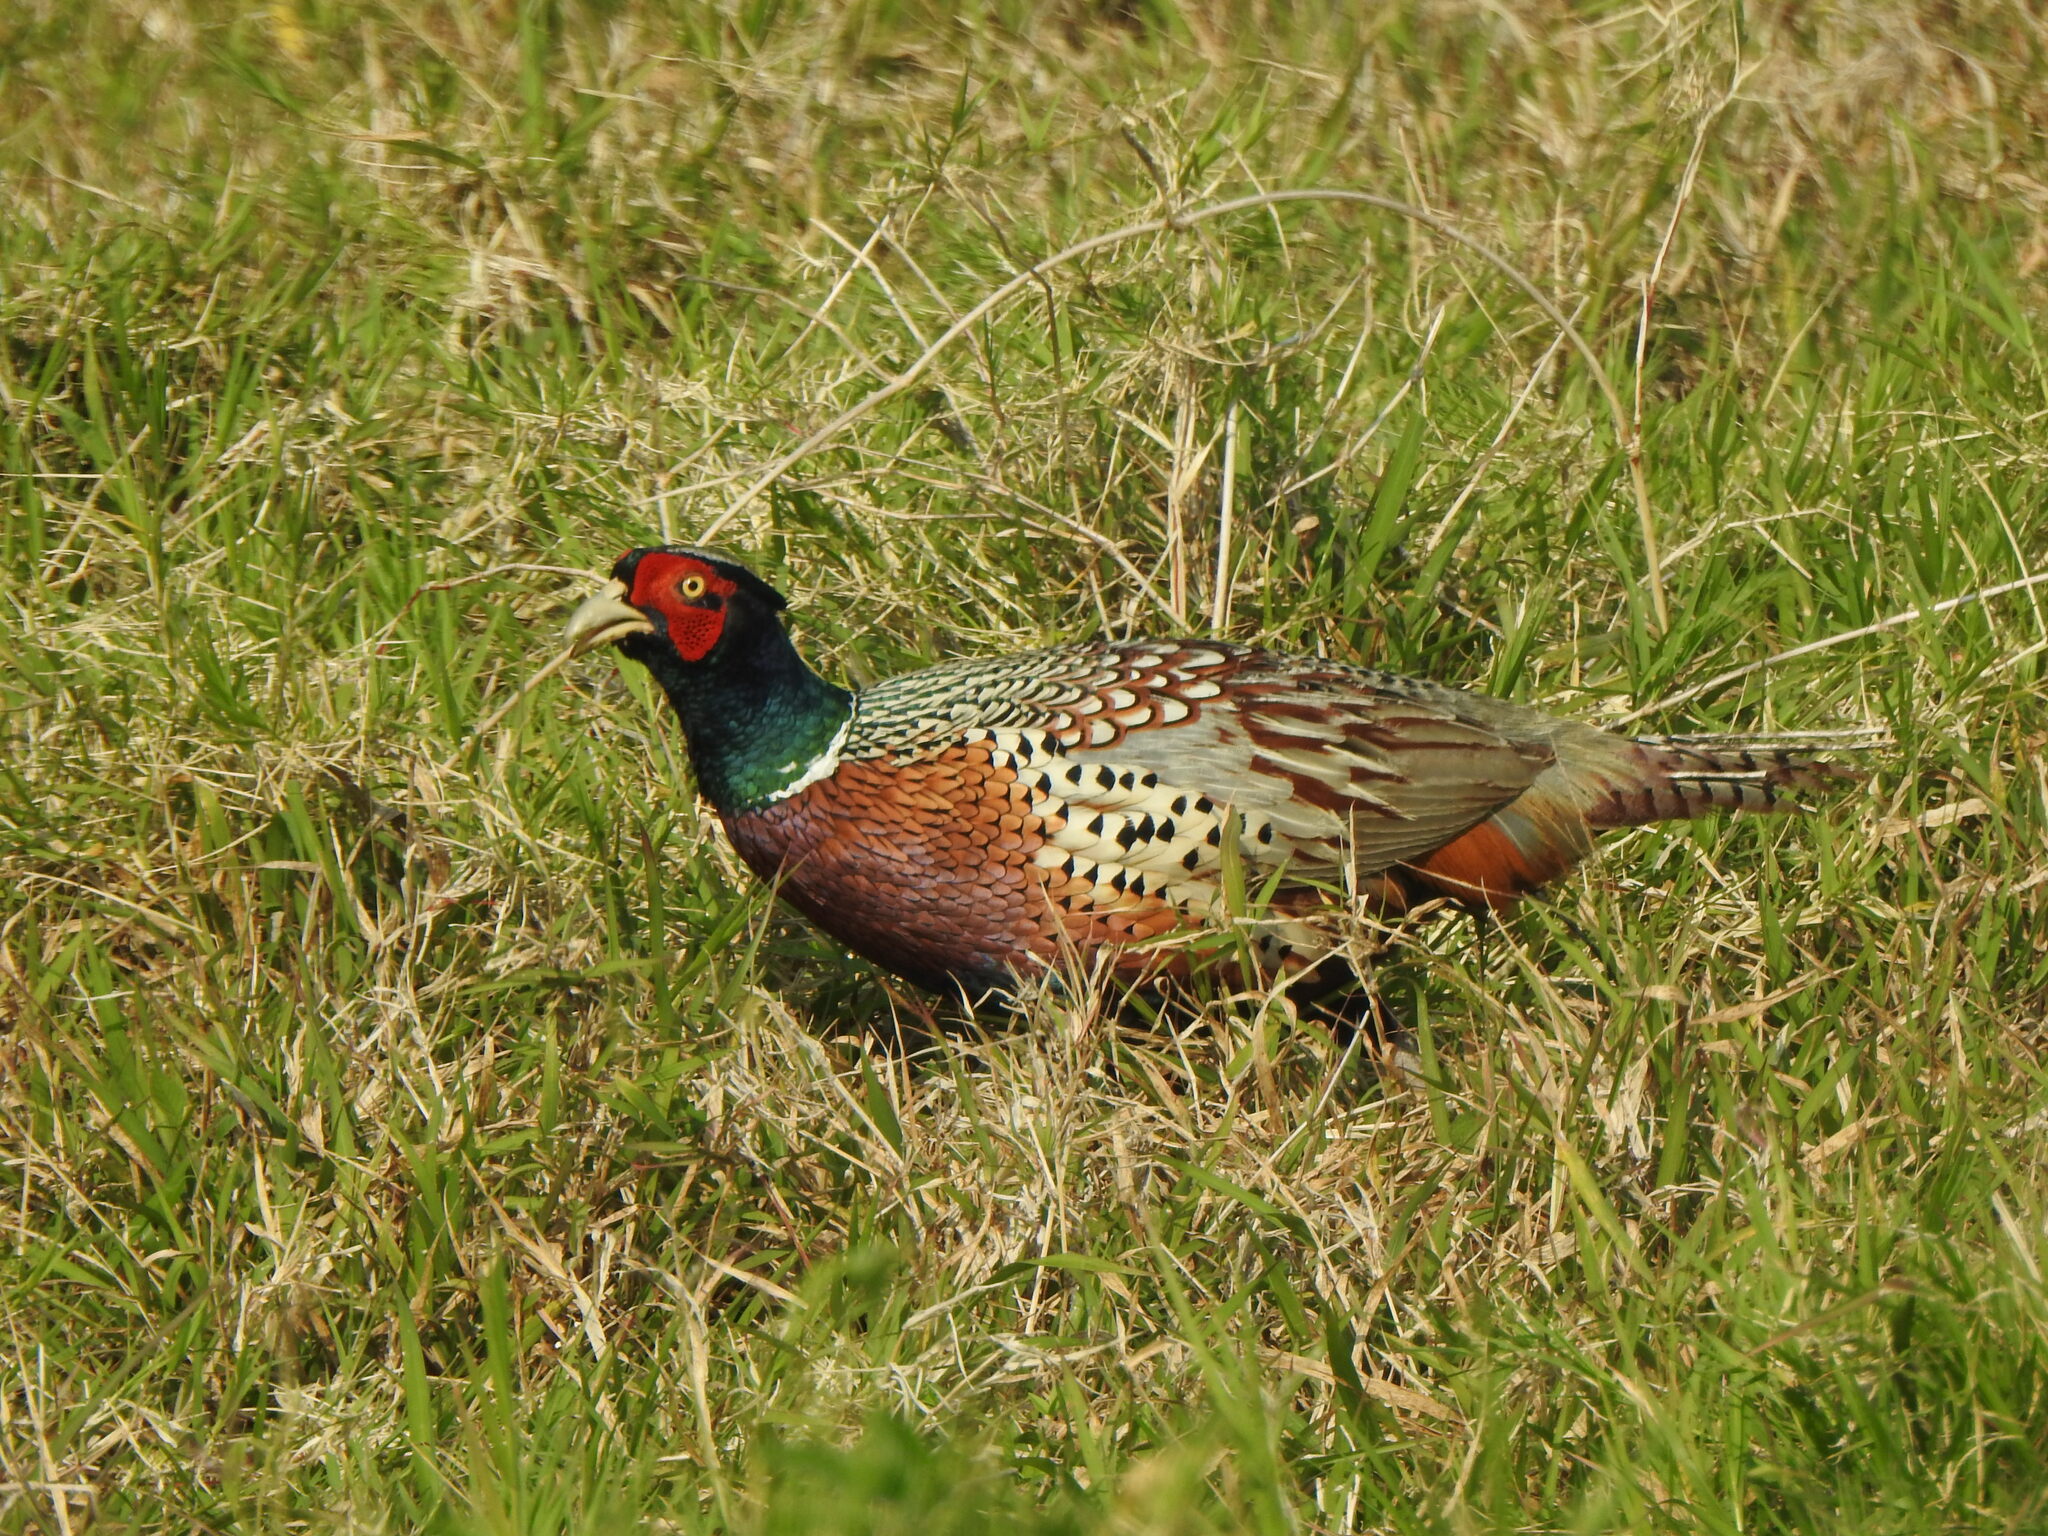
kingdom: Animalia
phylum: Chordata
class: Aves
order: Galliformes
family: Phasianidae
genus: Phasianus
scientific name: Phasianus colchicus
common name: Common pheasant
